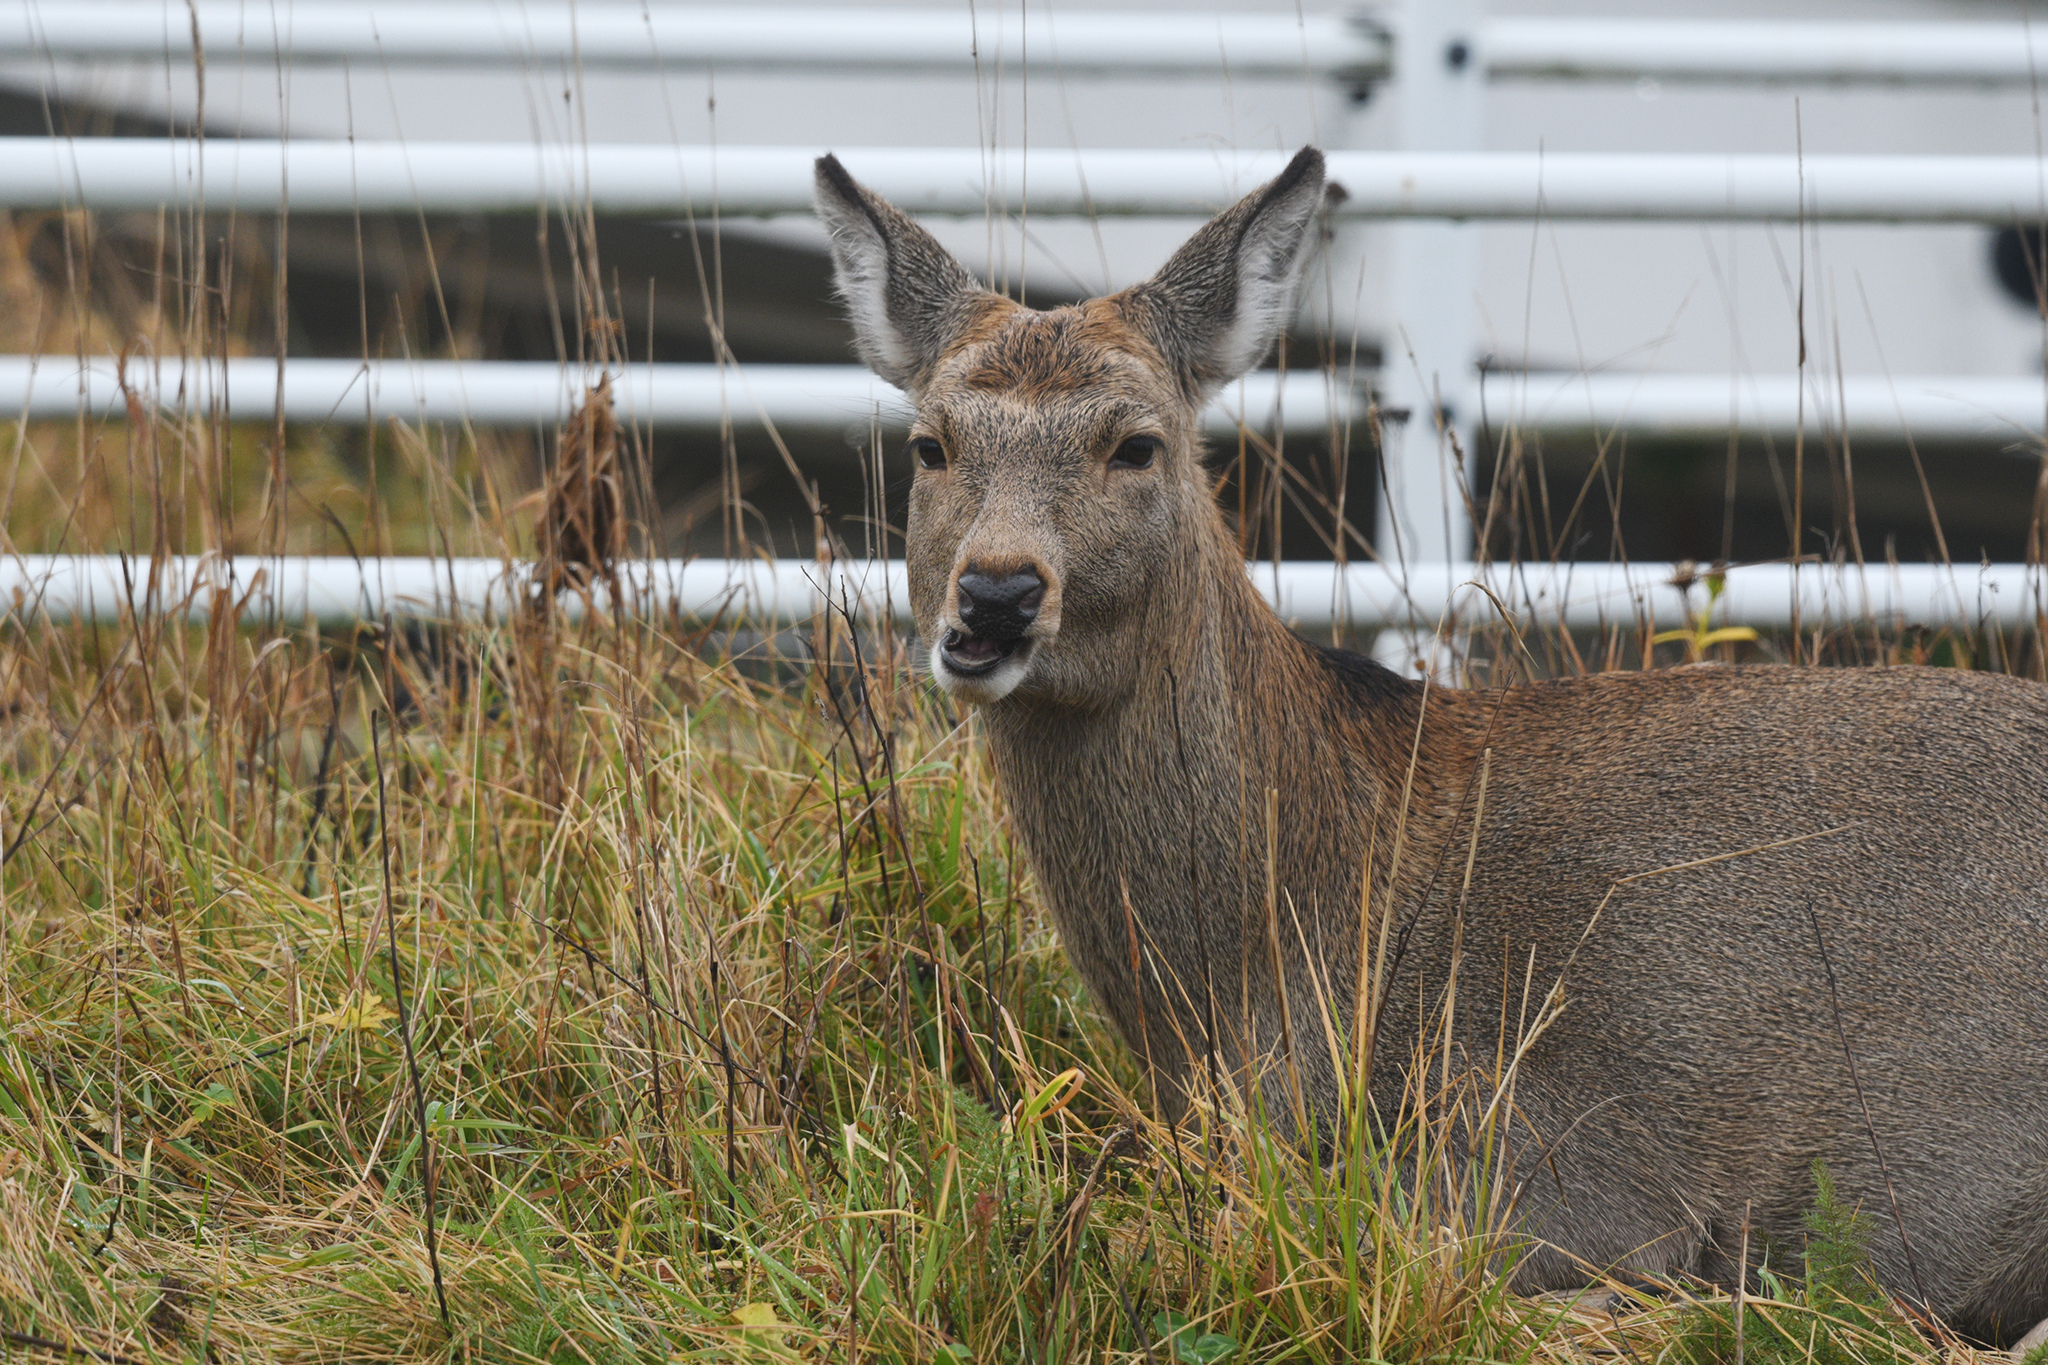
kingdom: Animalia
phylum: Chordata
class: Mammalia
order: Artiodactyla
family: Cervidae
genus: Cervus
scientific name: Cervus nippon
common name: Sika deer
